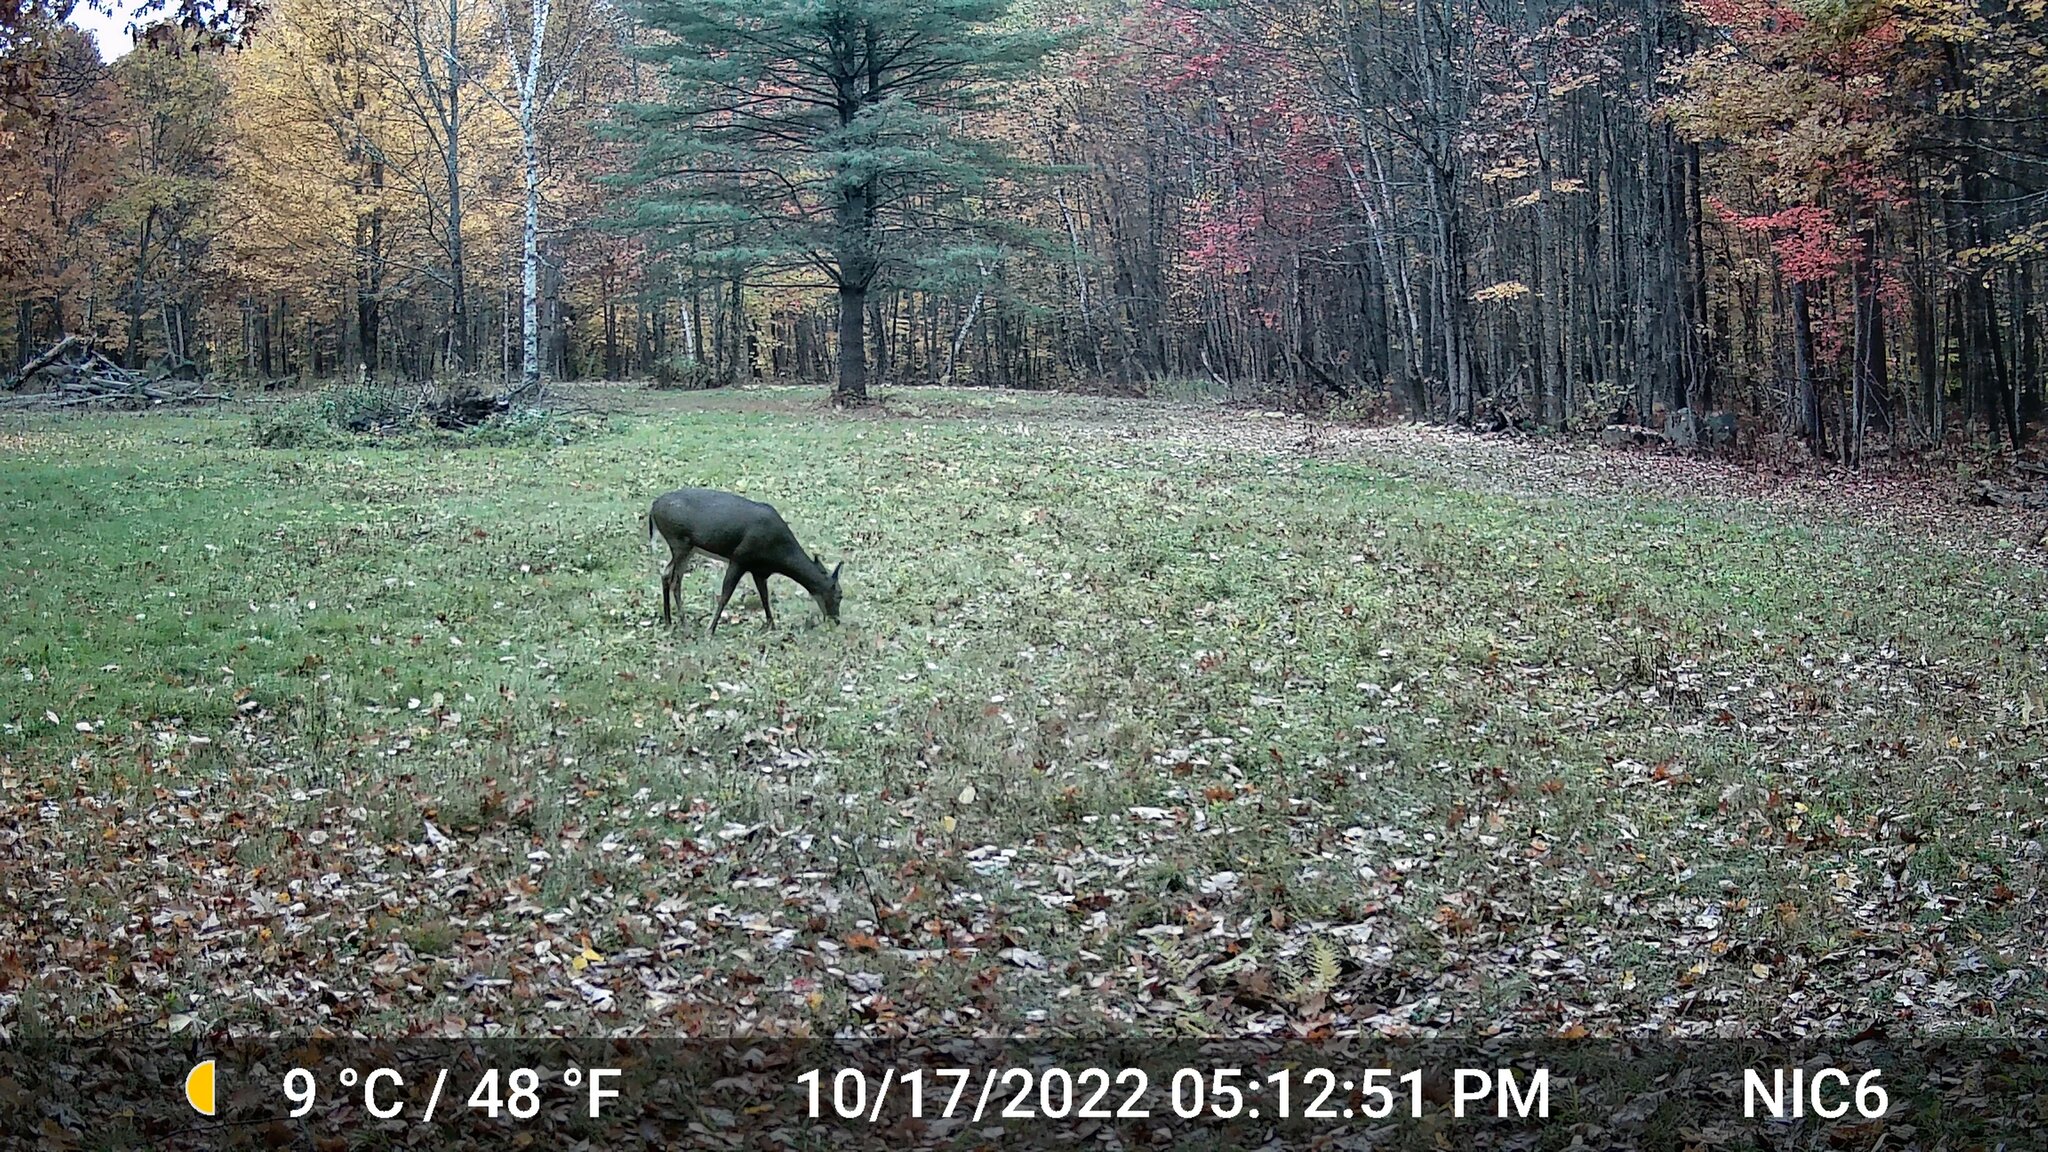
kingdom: Animalia
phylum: Chordata
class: Mammalia
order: Artiodactyla
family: Cervidae
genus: Odocoileus
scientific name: Odocoileus virginianus
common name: White-tailed deer
